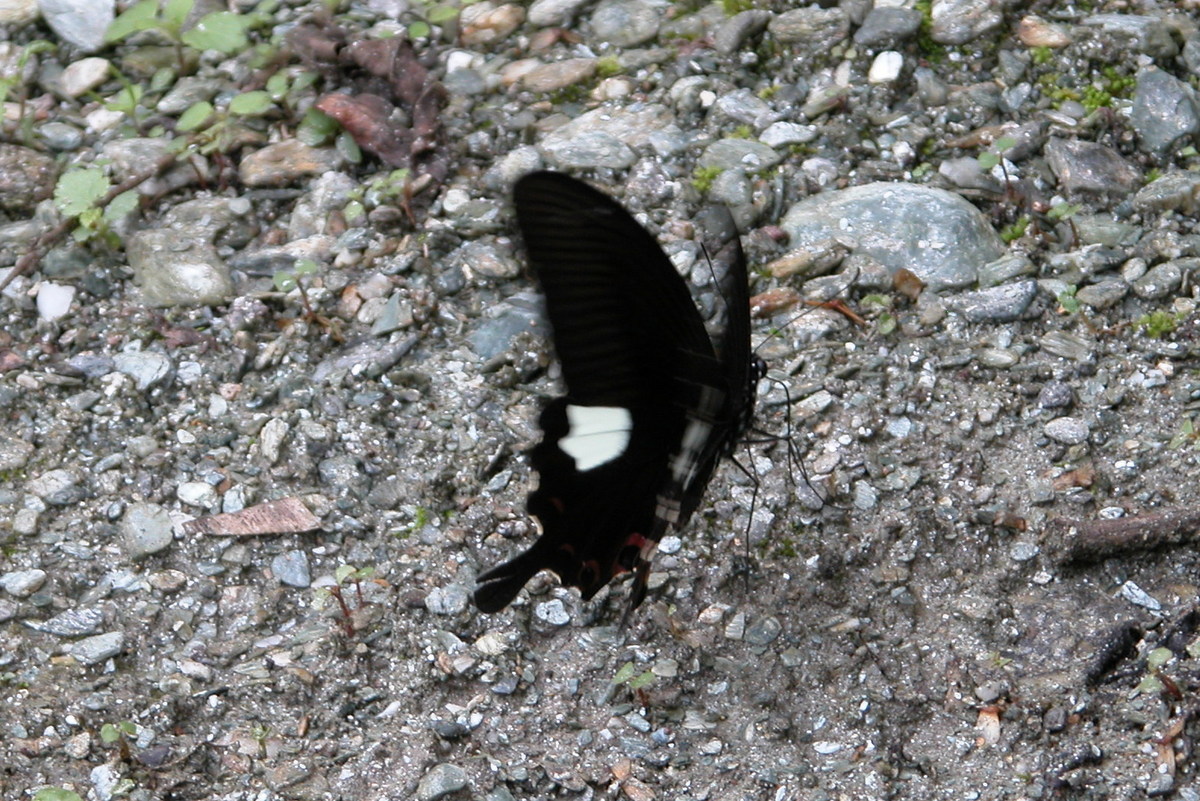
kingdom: Animalia
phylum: Arthropoda
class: Insecta
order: Lepidoptera
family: Papilionidae
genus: Papilio
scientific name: Papilio helenus
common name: Red helen
